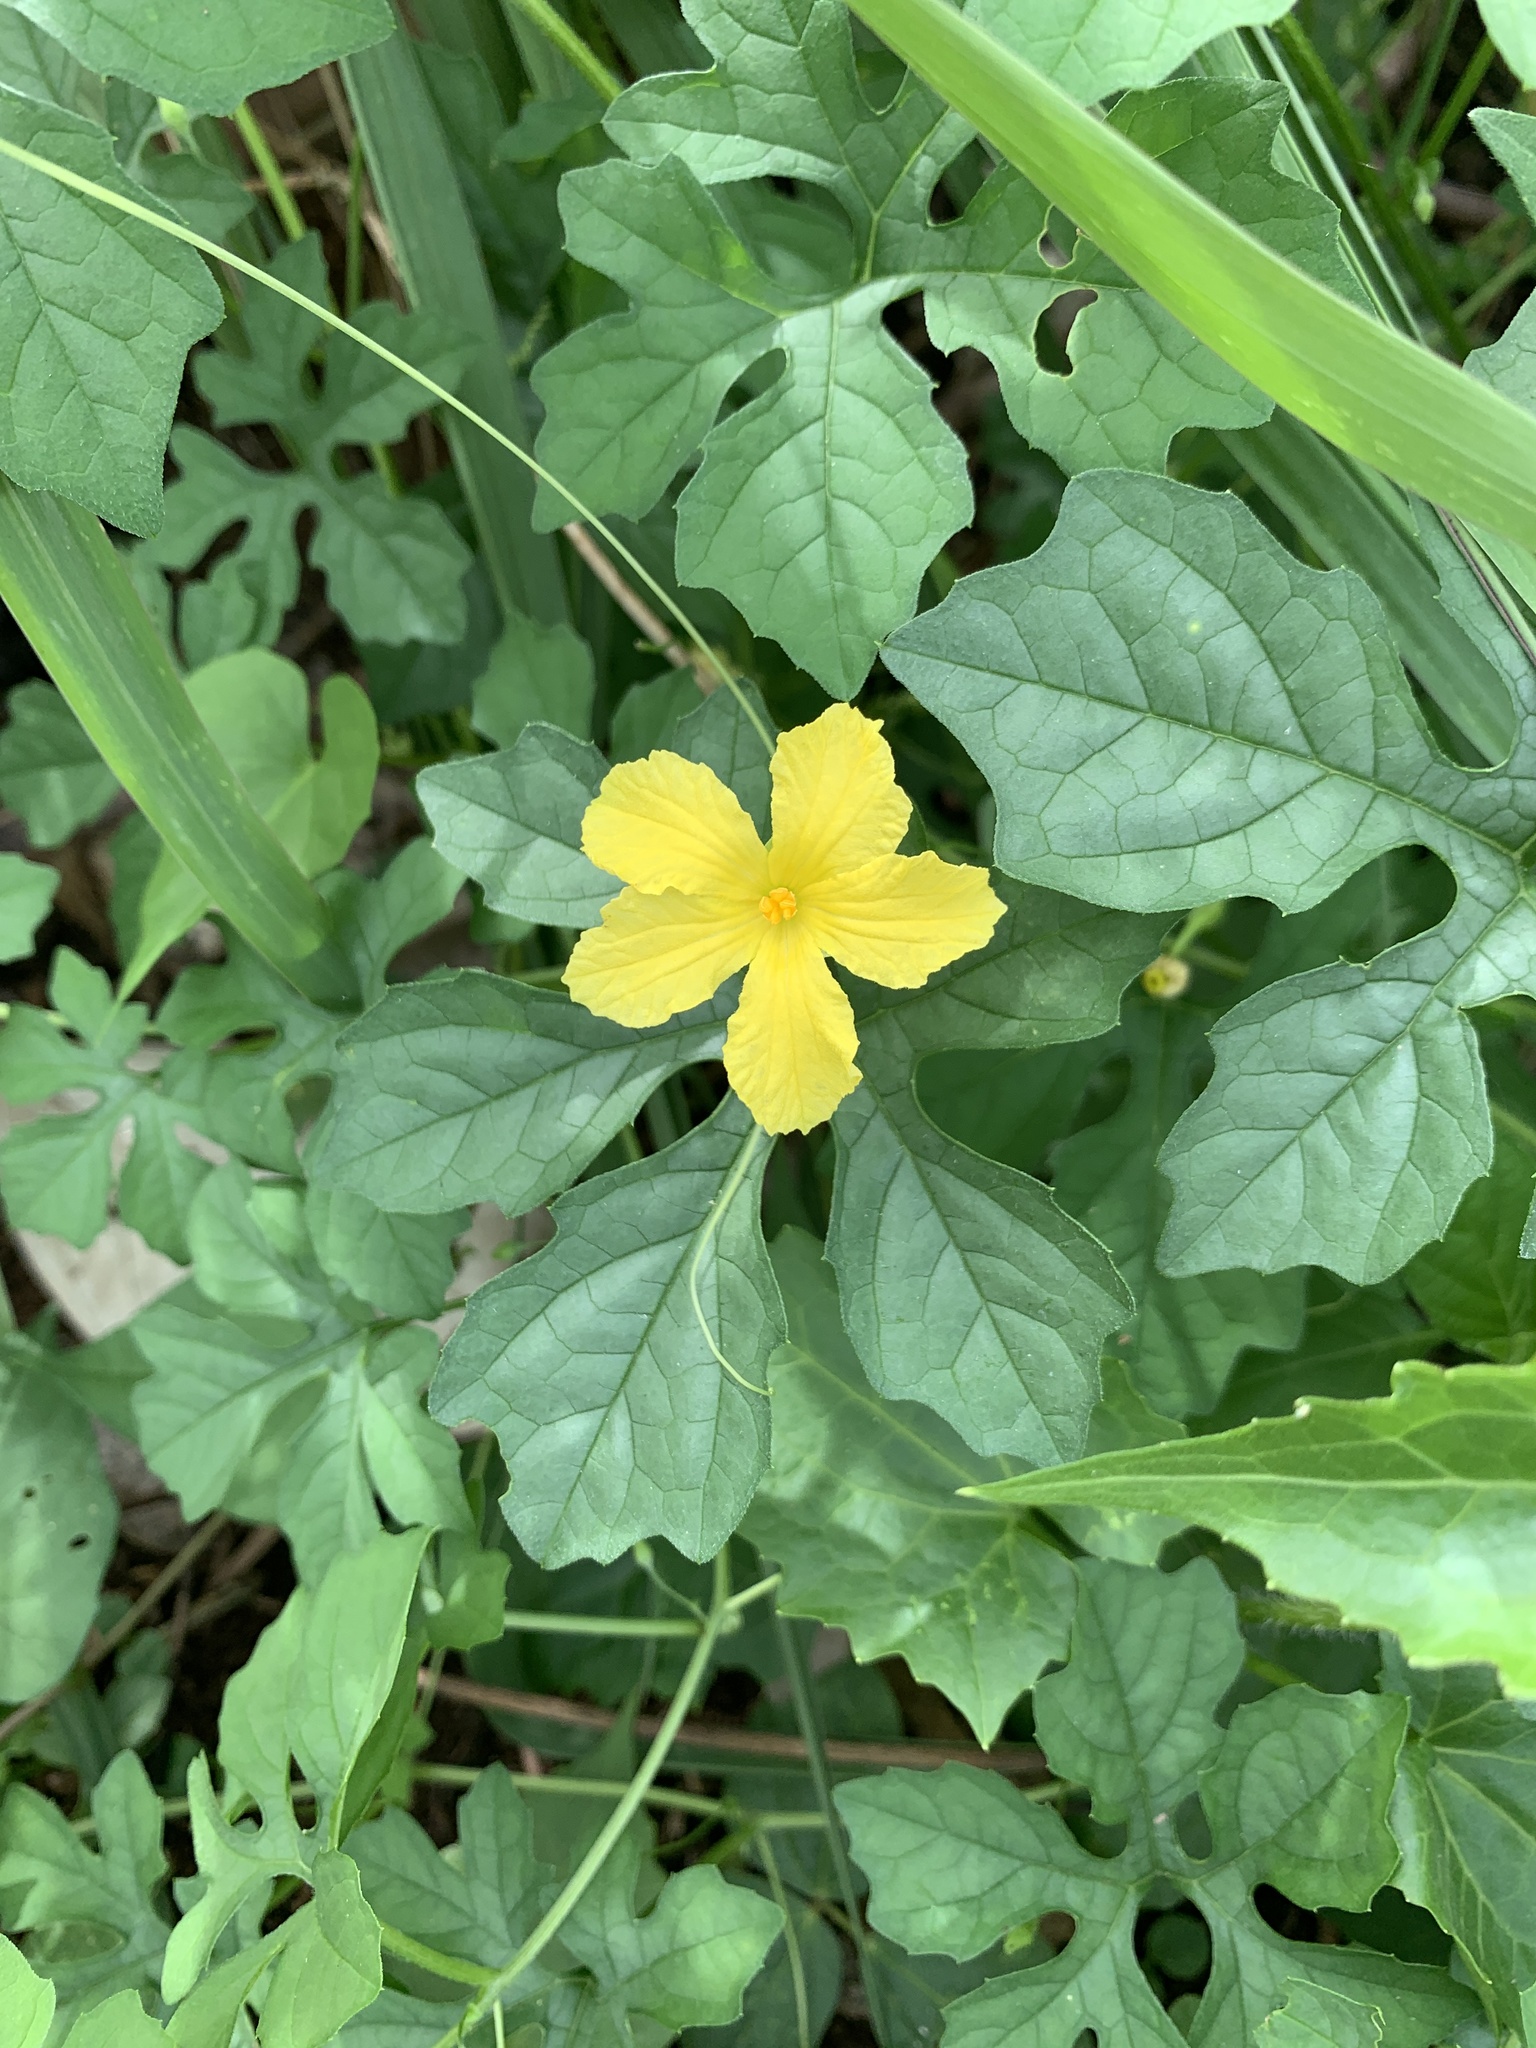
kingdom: Plantae
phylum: Tracheophyta
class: Magnoliopsida
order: Cucurbitales
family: Cucurbitaceae
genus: Momordica
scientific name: Momordica charantia
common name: Balsampear
